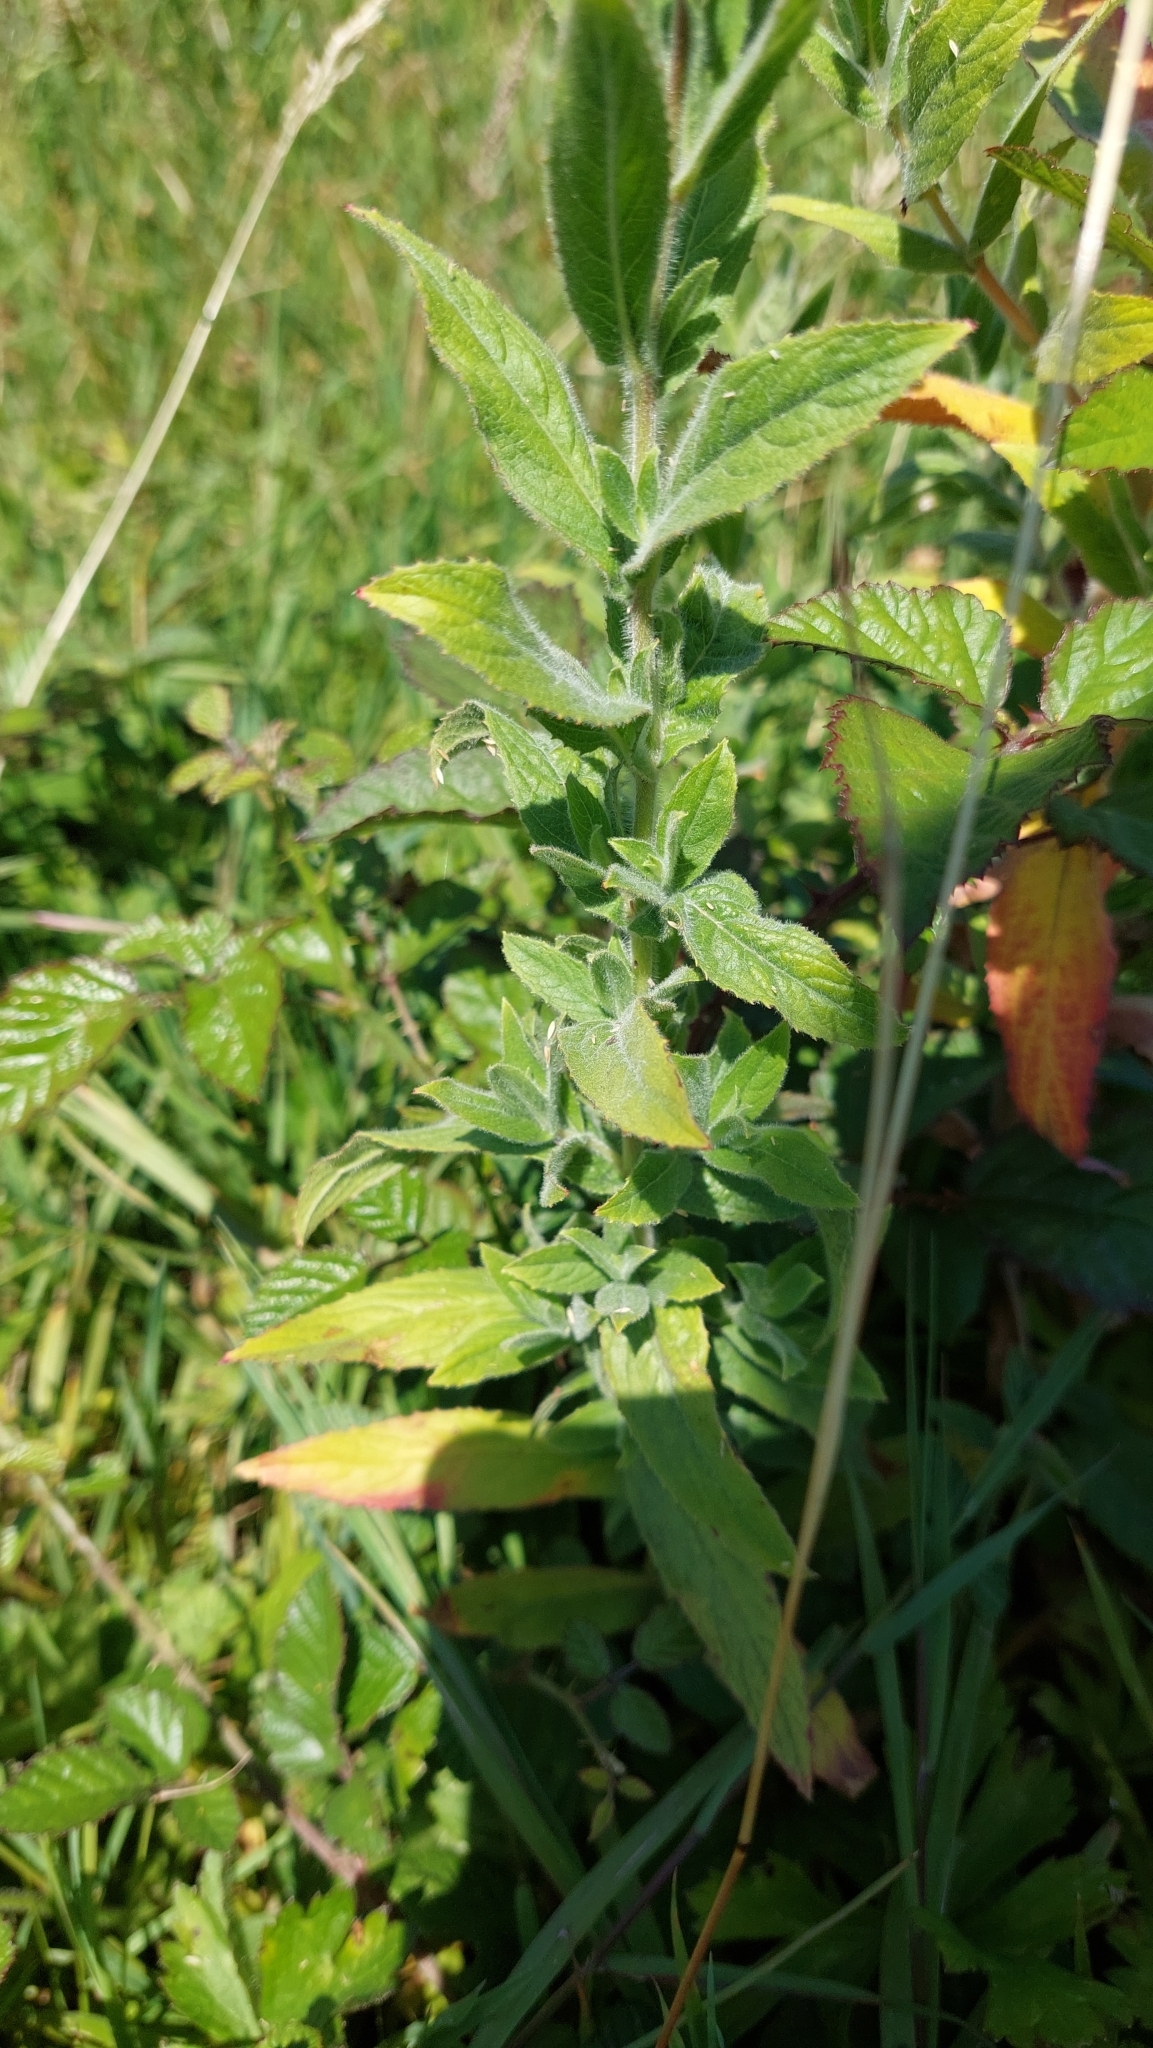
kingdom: Plantae
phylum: Tracheophyta
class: Magnoliopsida
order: Myrtales
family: Onagraceae
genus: Epilobium
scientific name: Epilobium hirsutum
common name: Great willowherb
